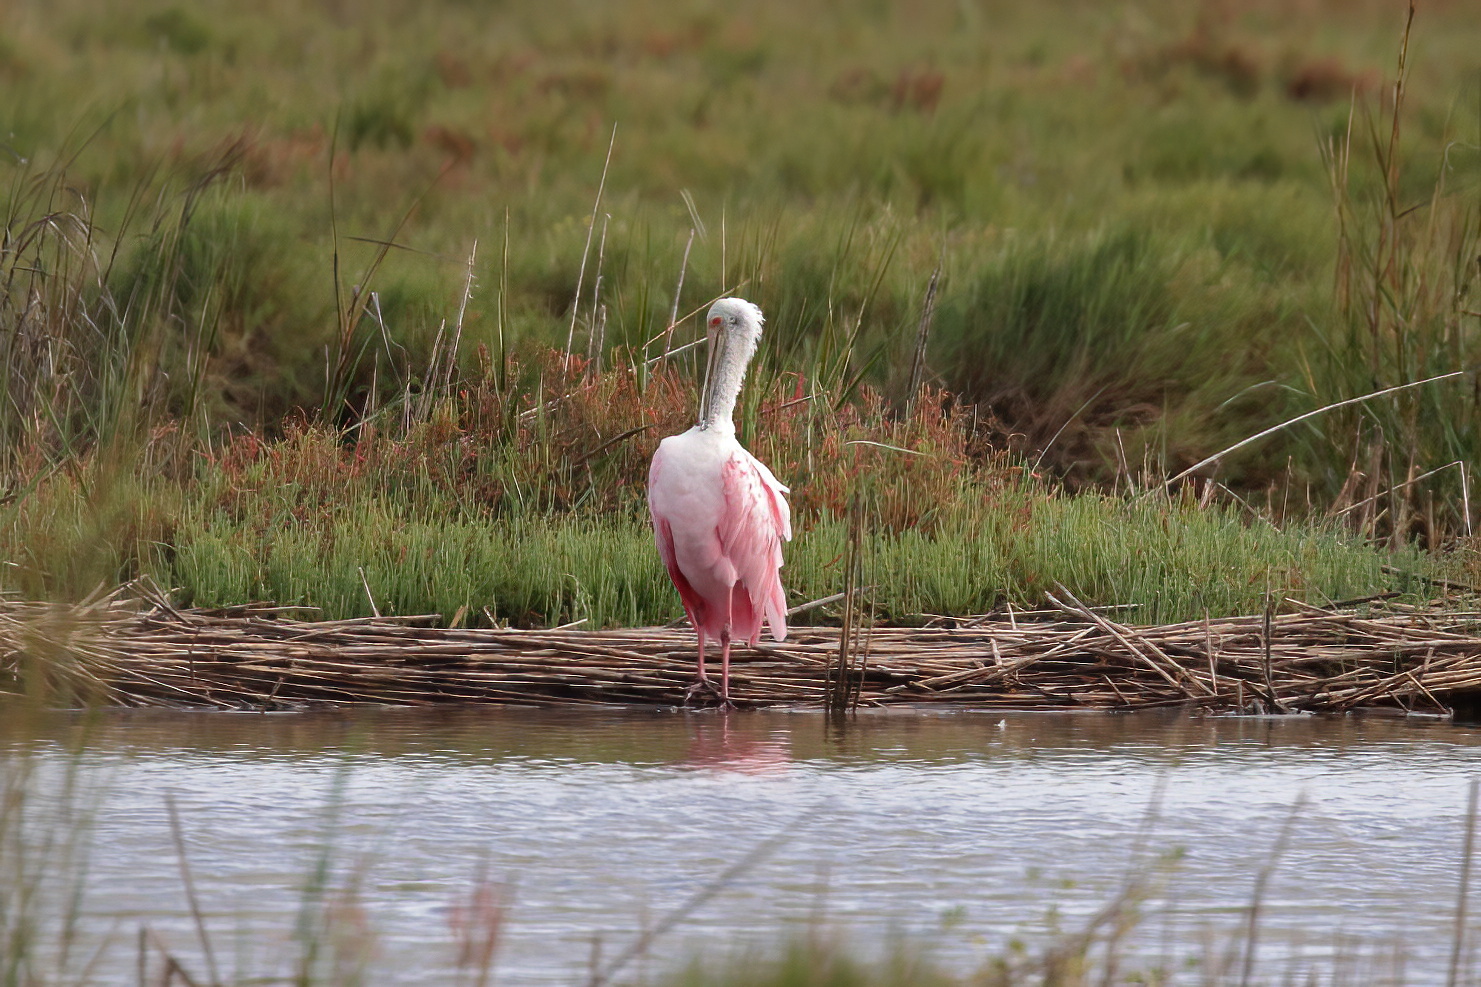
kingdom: Animalia
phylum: Chordata
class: Aves
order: Pelecaniformes
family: Threskiornithidae
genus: Platalea
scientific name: Platalea ajaja
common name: Roseate spoonbill
